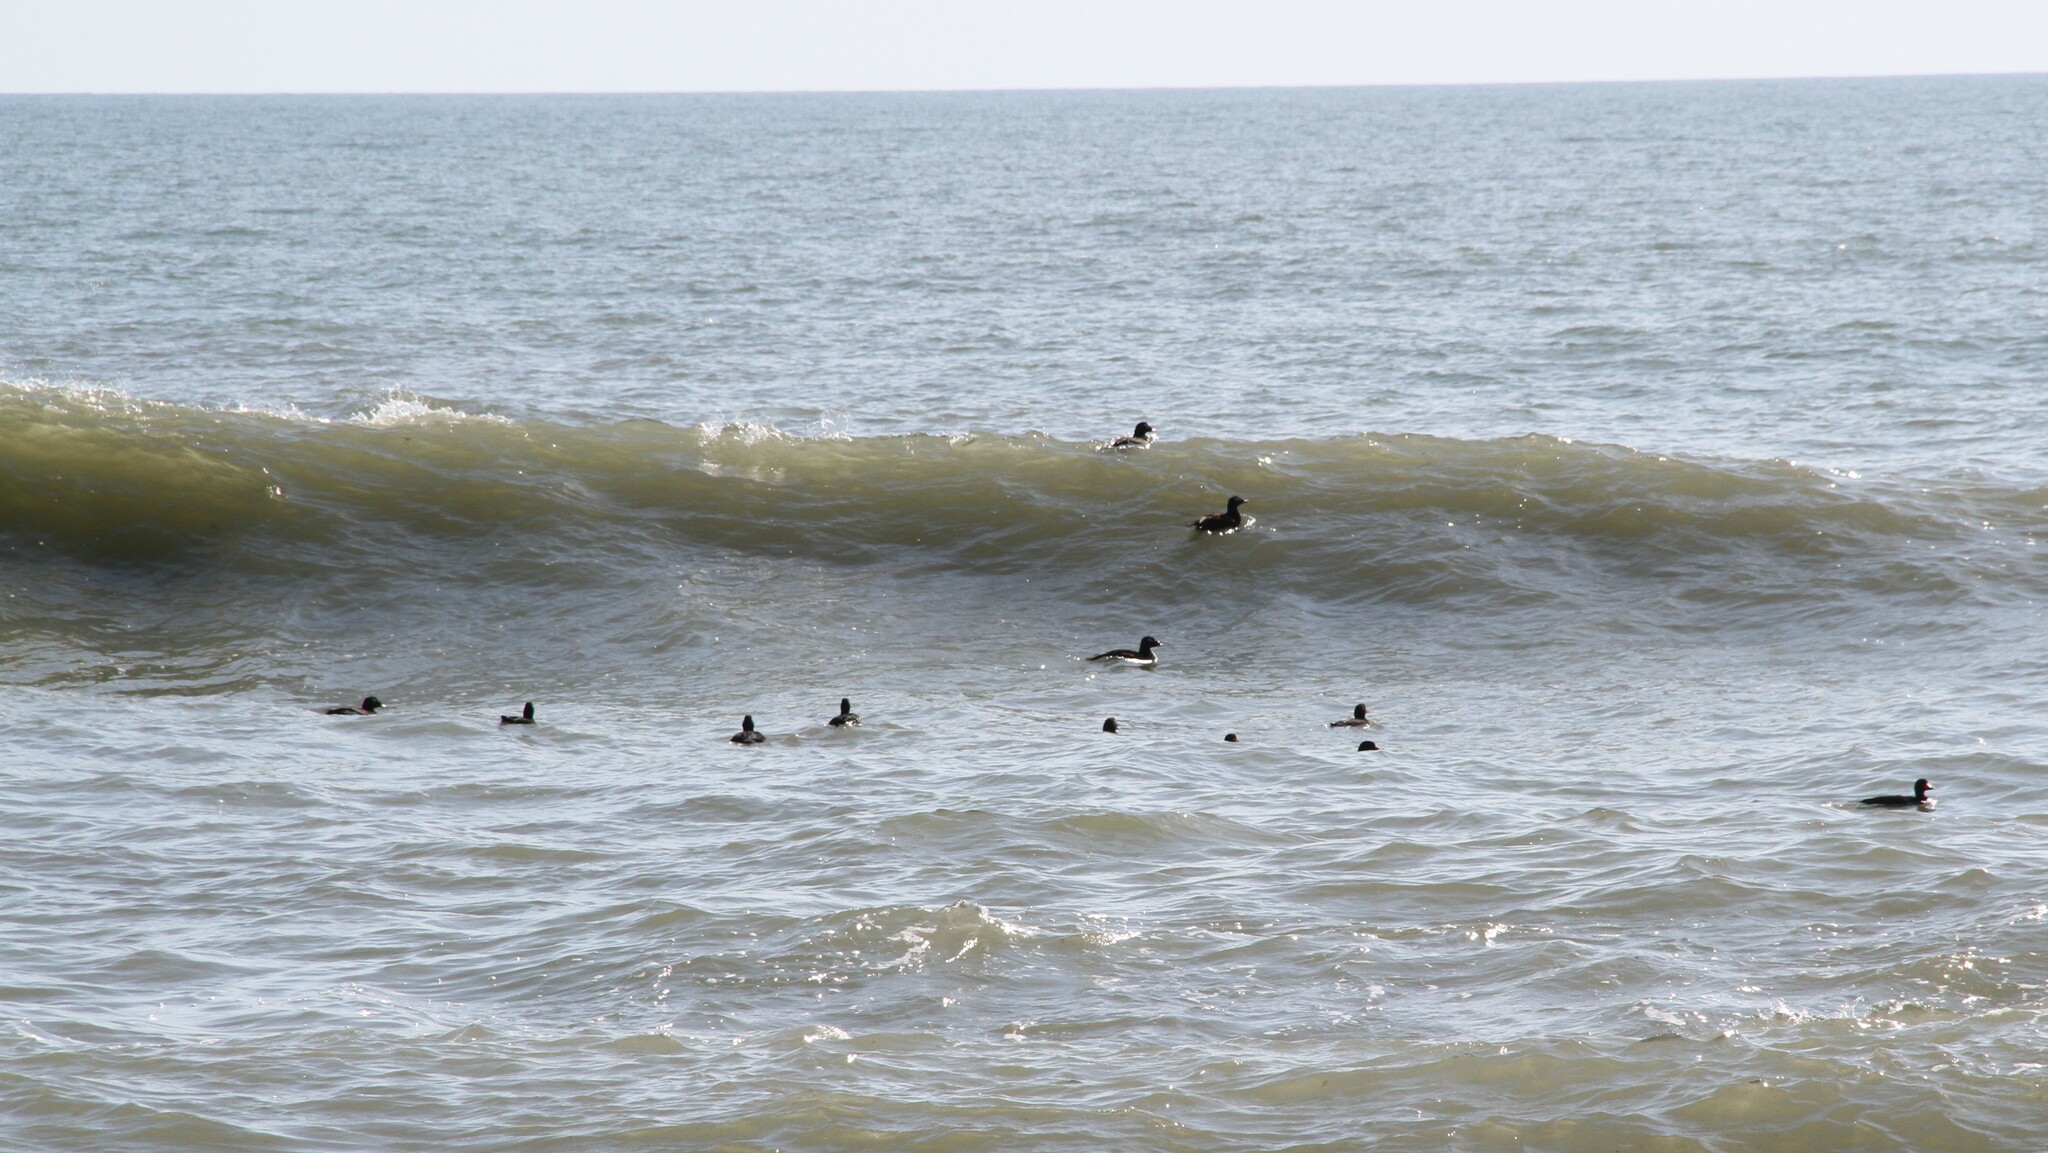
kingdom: Animalia
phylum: Chordata
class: Aves
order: Anseriformes
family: Anatidae
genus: Melanitta
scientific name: Melanitta deglandi
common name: White-winged scoter
